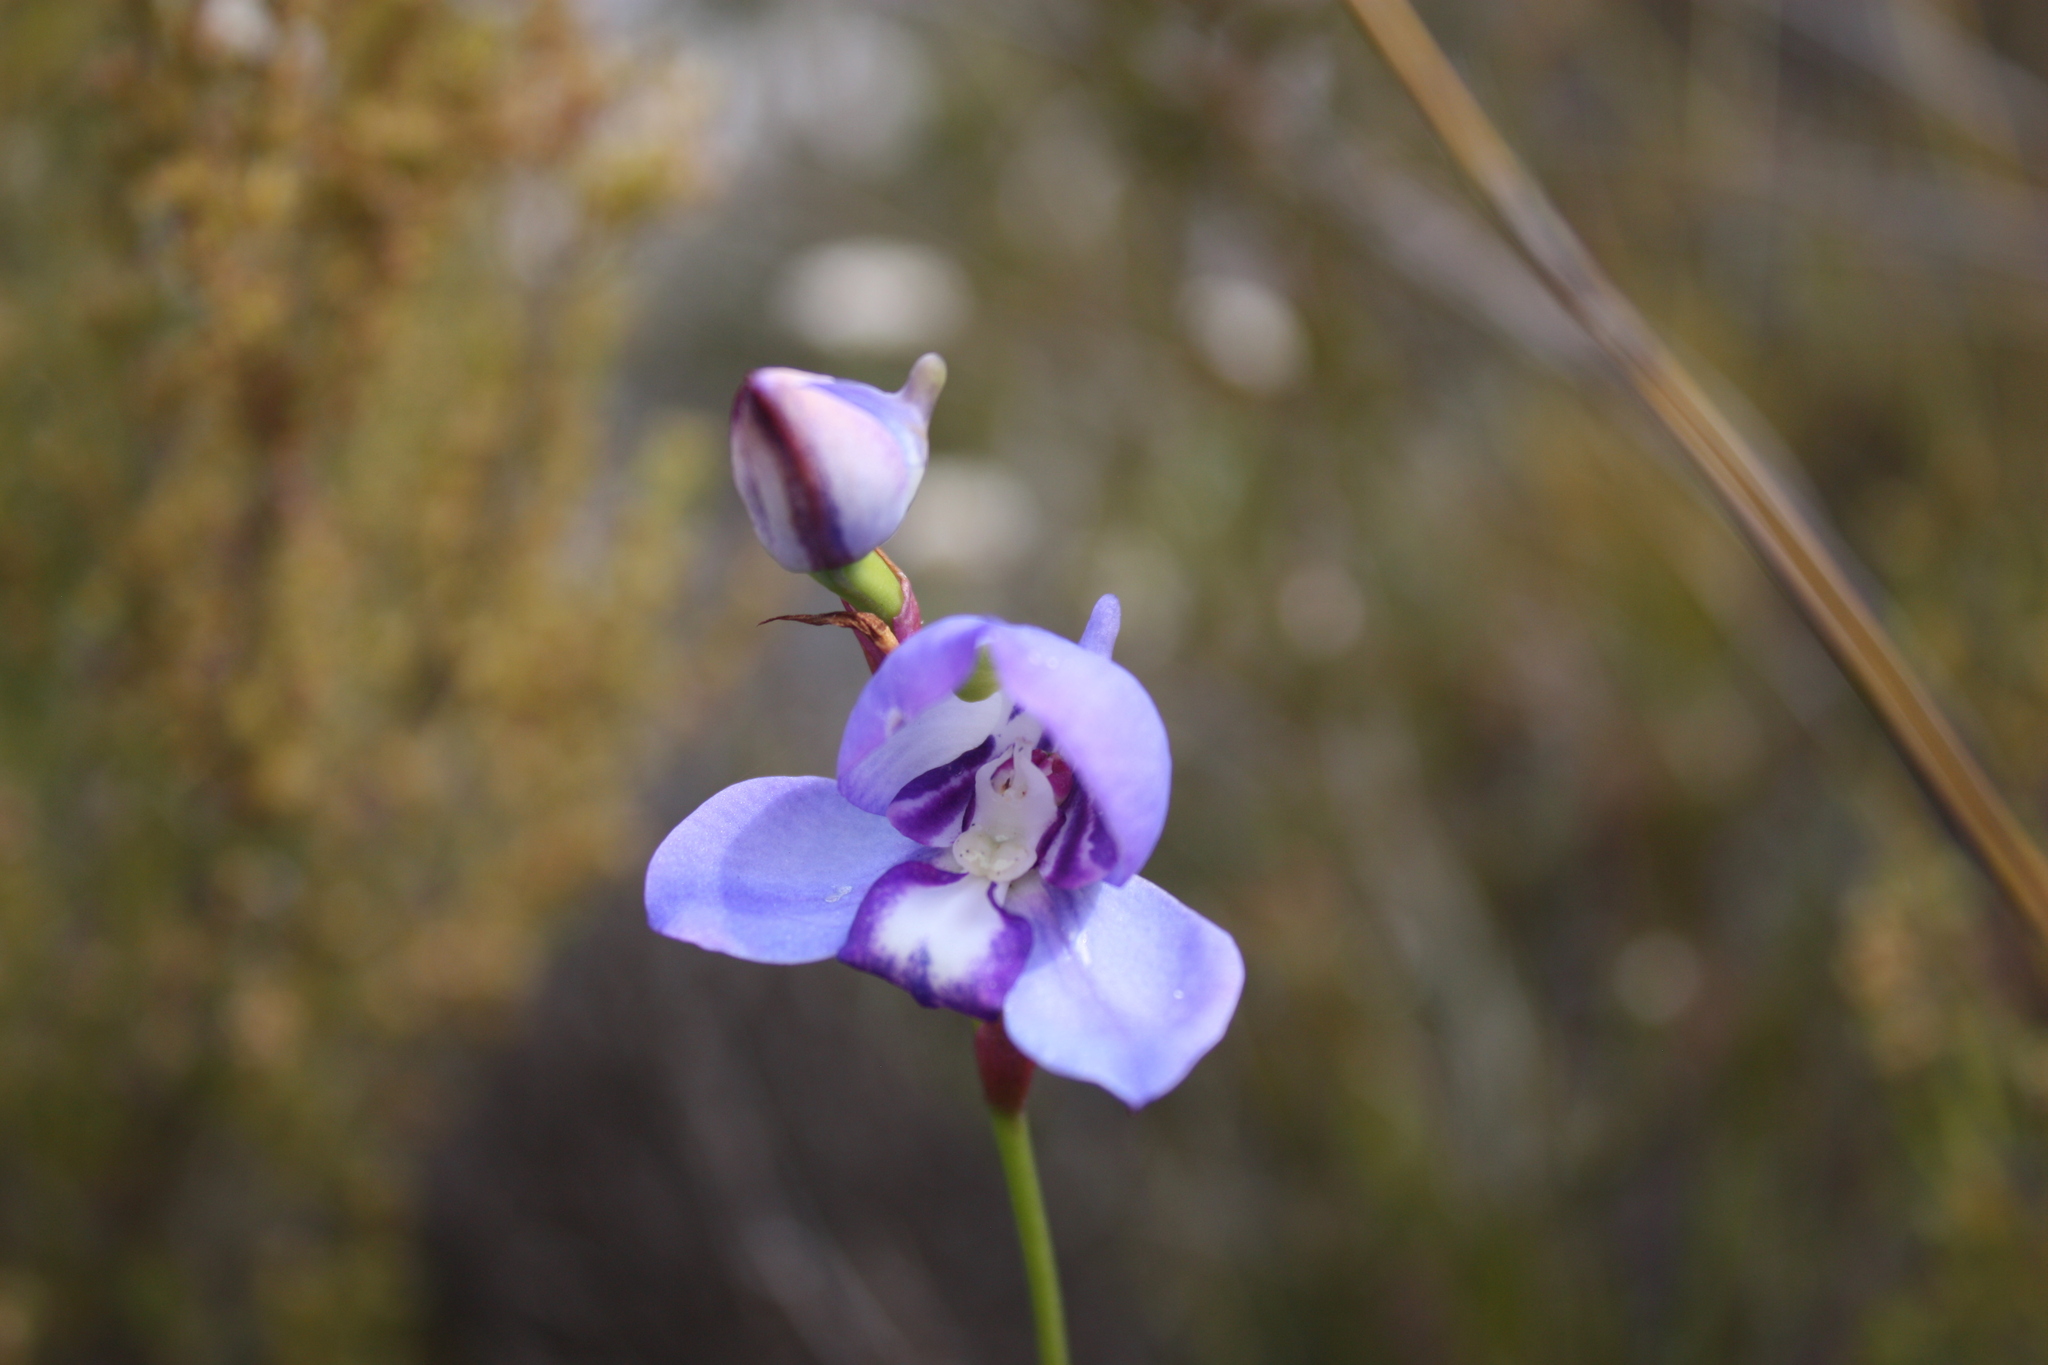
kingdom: Plantae
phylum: Tracheophyta
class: Liliopsida
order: Asparagales
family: Orchidaceae
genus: Disa
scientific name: Disa graminifolia
